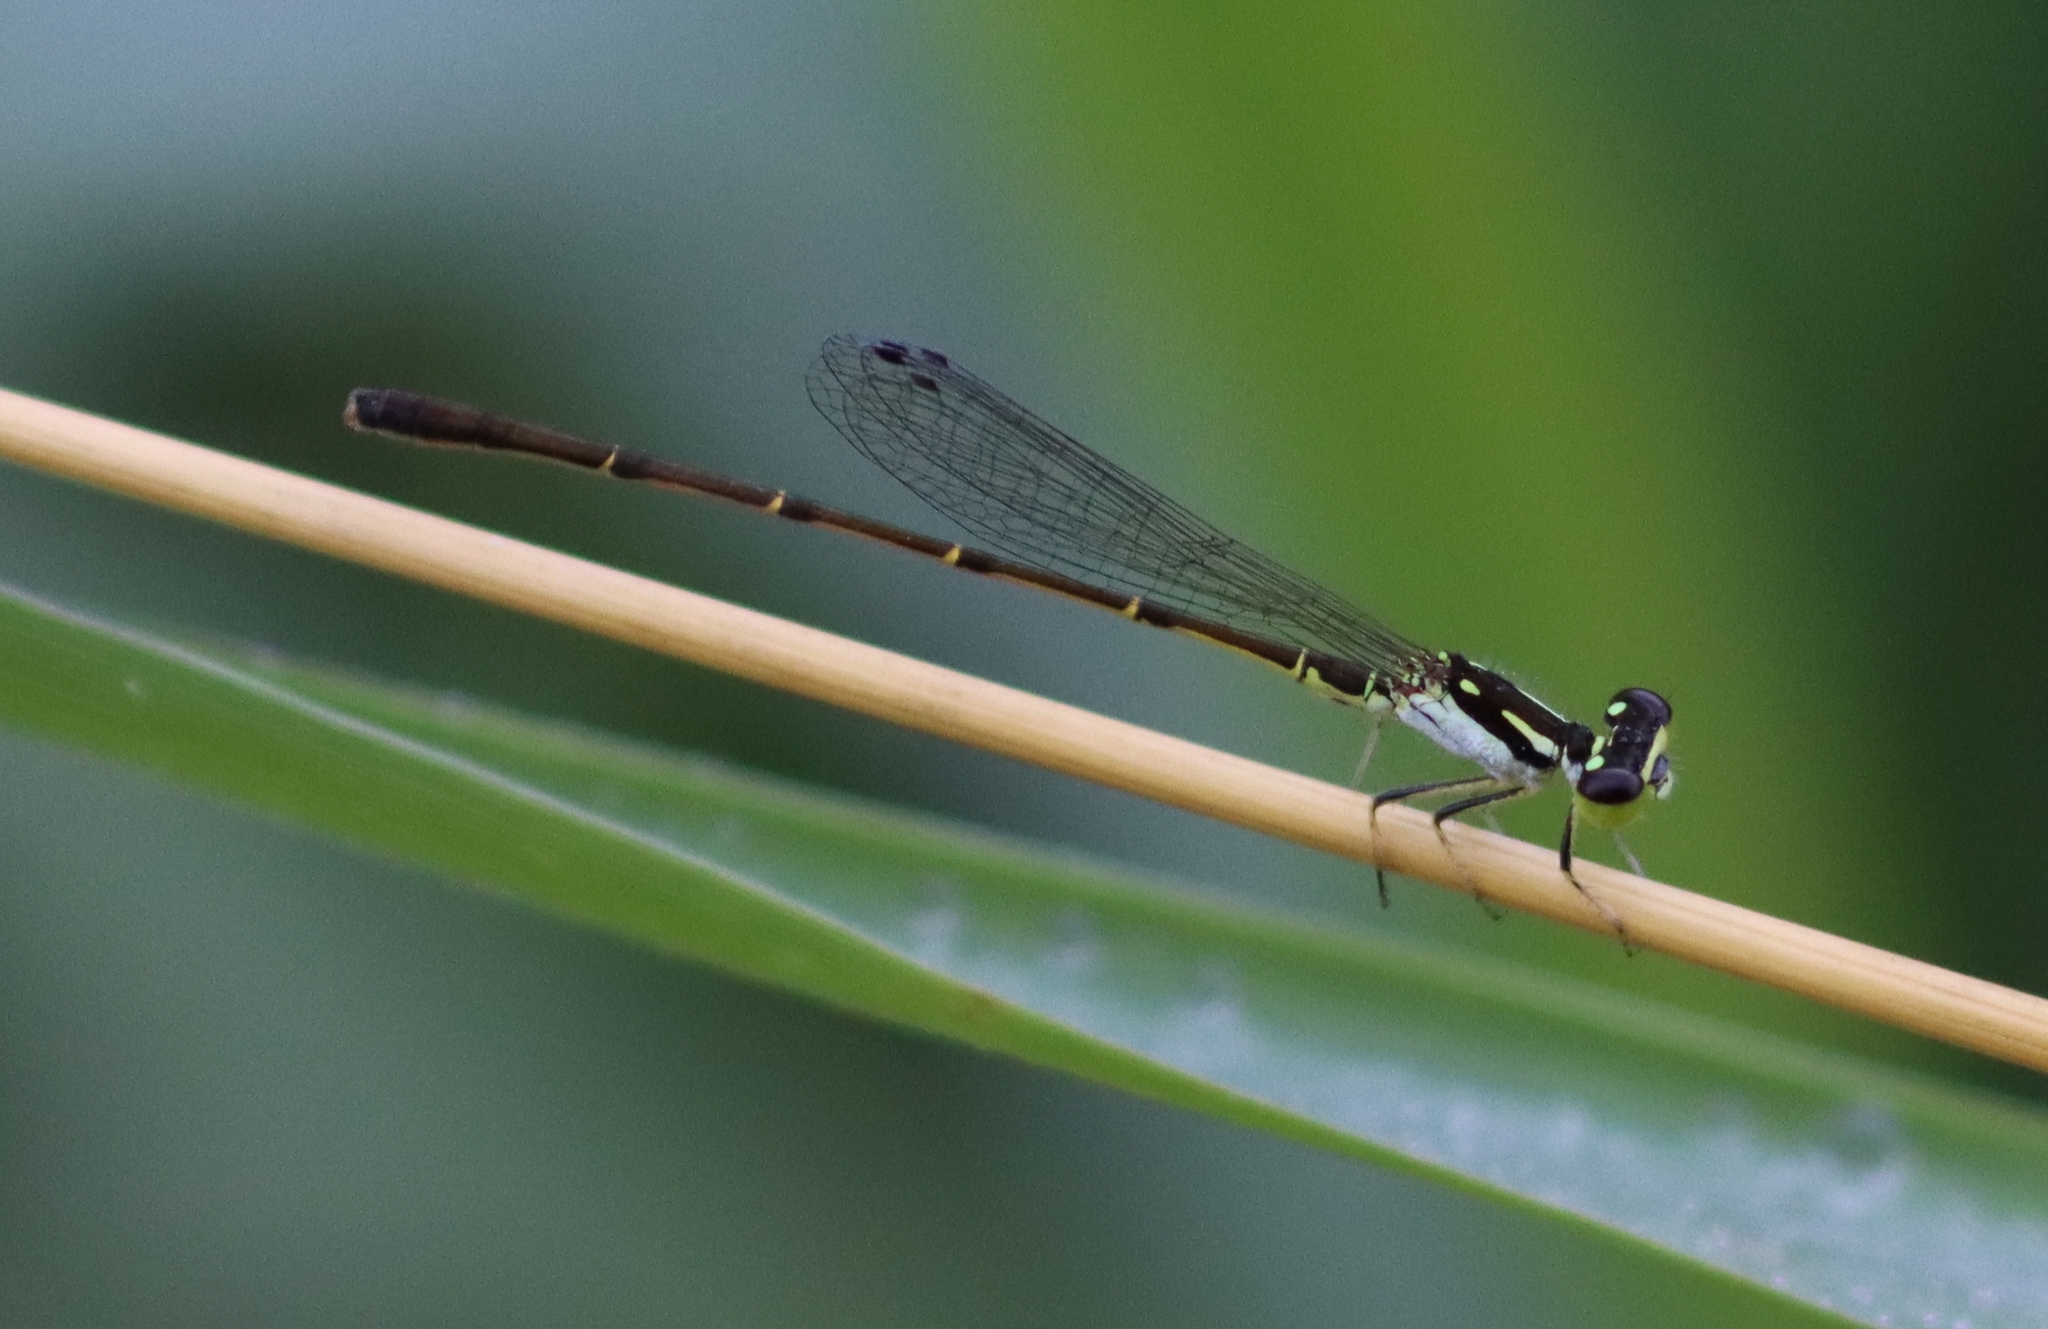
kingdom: Animalia
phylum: Arthropoda
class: Insecta
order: Odonata
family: Coenagrionidae
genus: Ischnura
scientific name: Ischnura posita
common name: Fragile forktail
